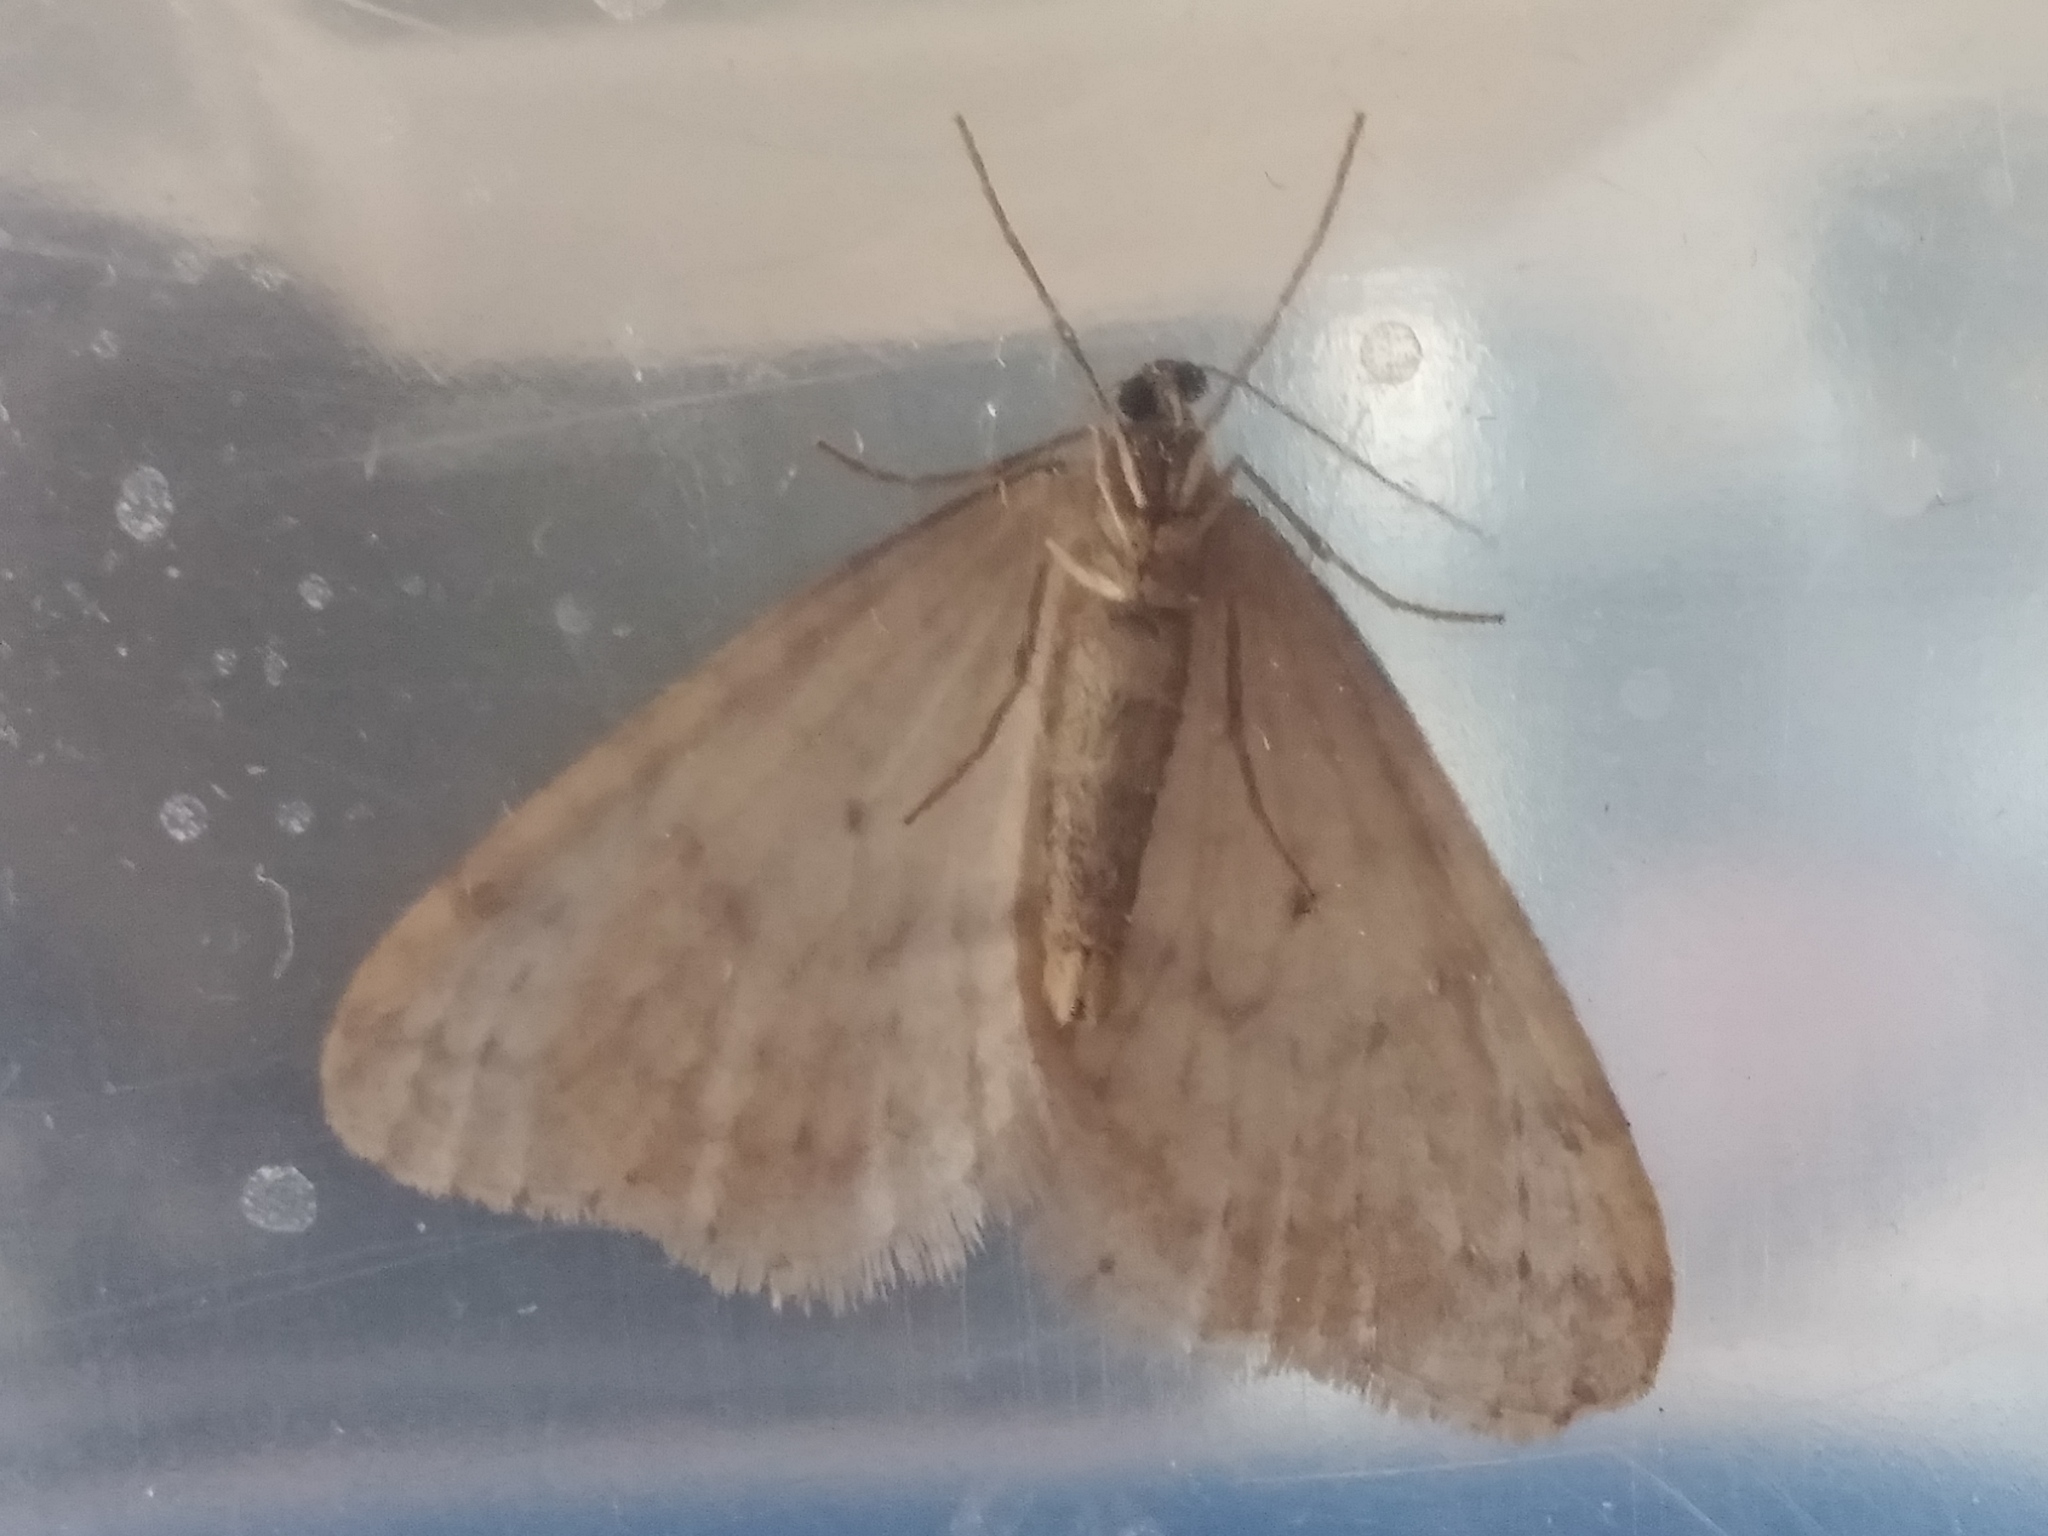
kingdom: Animalia
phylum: Arthropoda
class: Insecta
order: Lepidoptera
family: Geometridae
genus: Operophtera
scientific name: Operophtera bruceata
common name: Bruce spanworm
